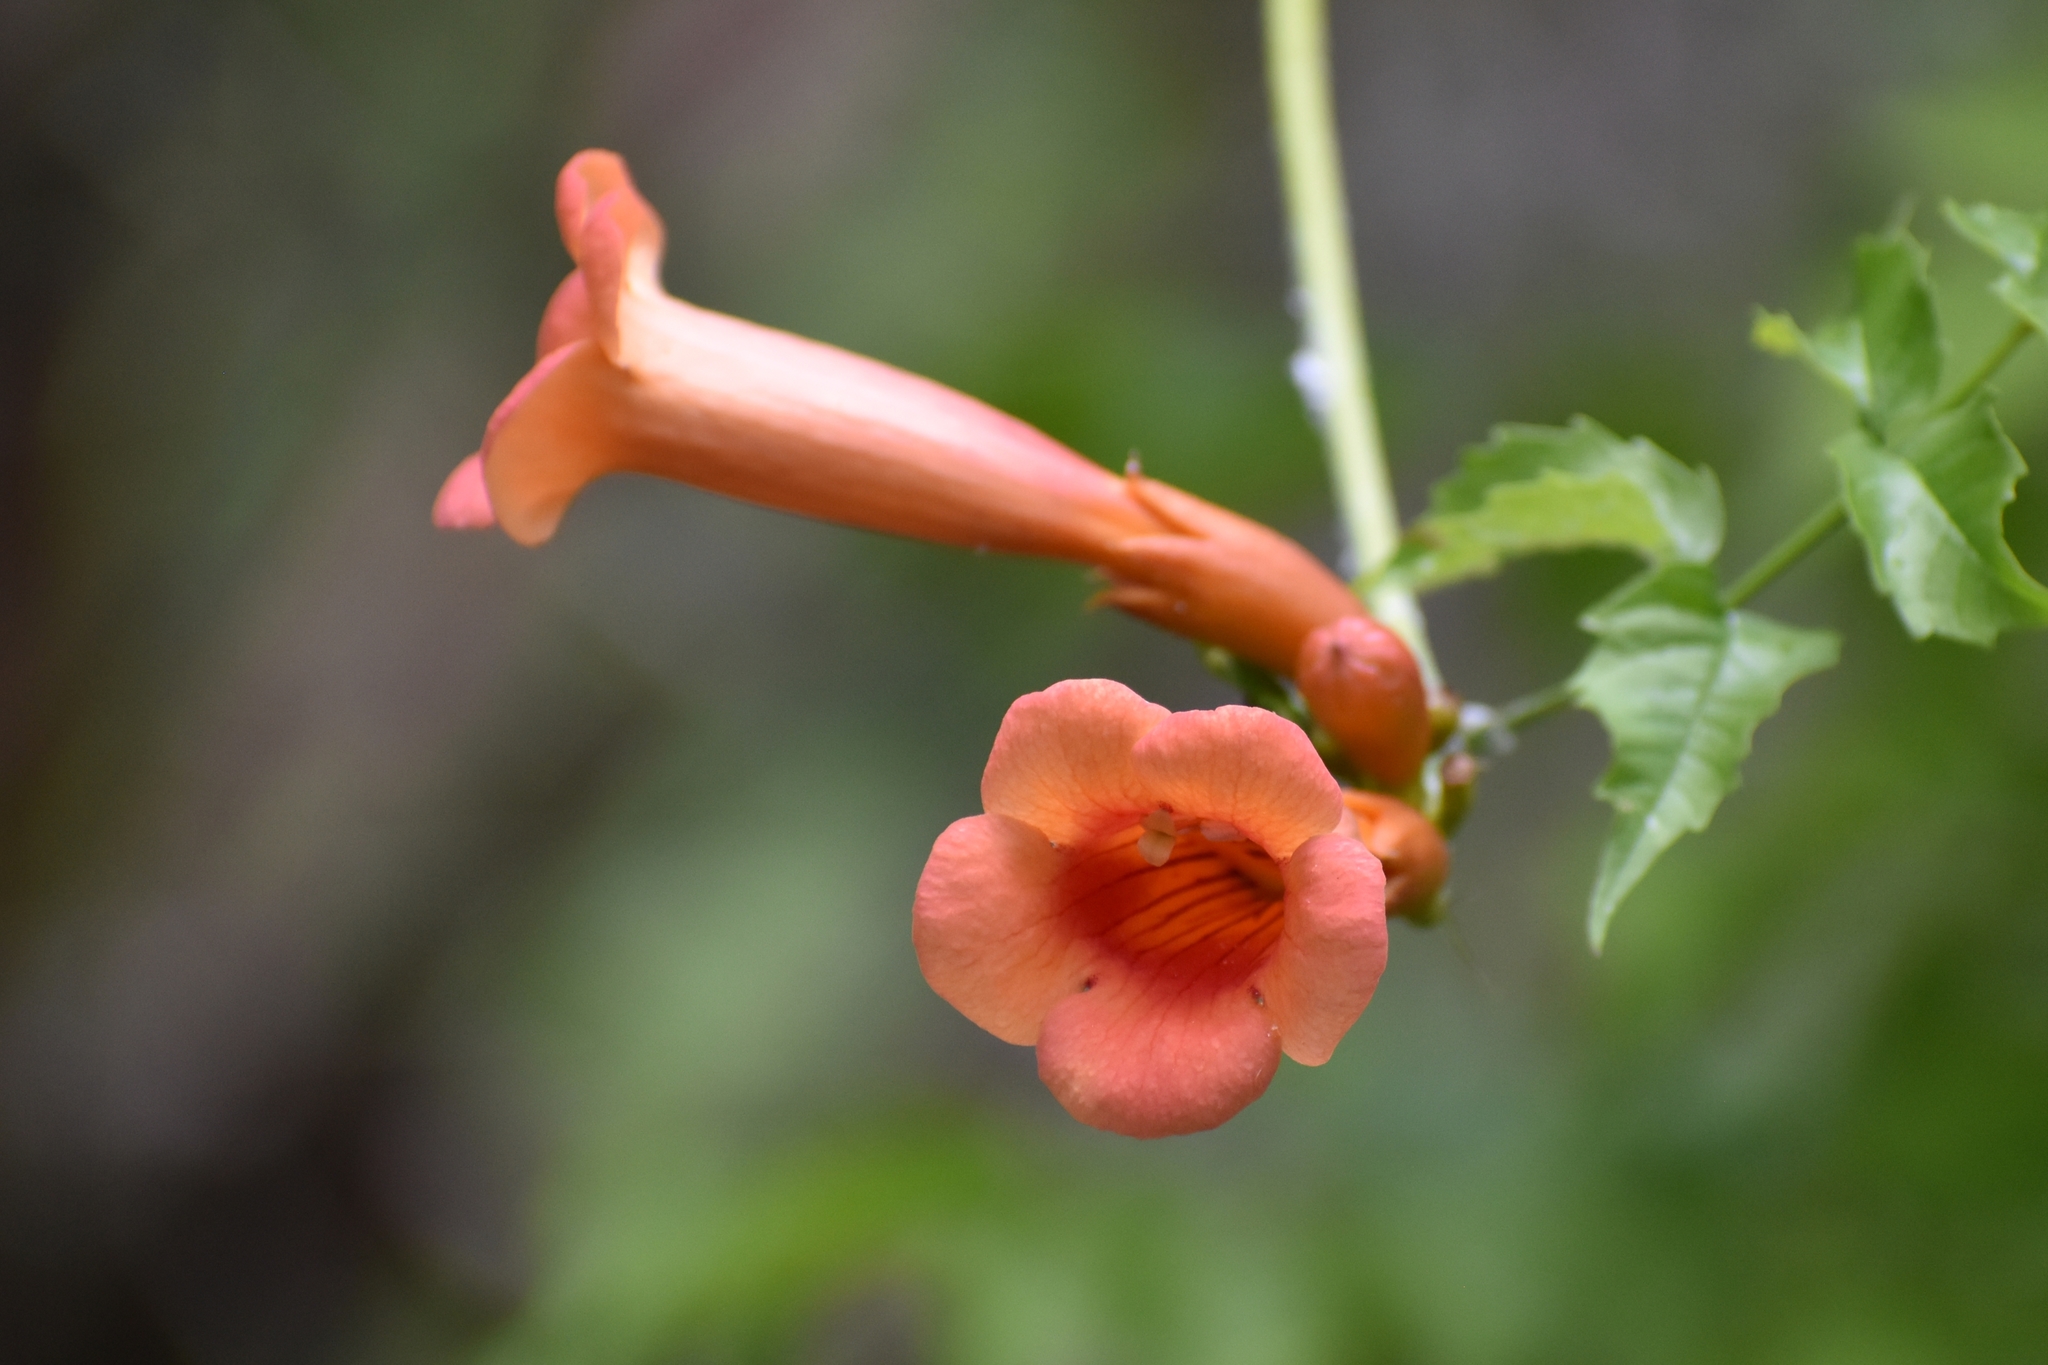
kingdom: Plantae
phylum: Tracheophyta
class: Magnoliopsida
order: Lamiales
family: Bignoniaceae
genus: Campsis
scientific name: Campsis radicans
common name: Trumpet-creeper
